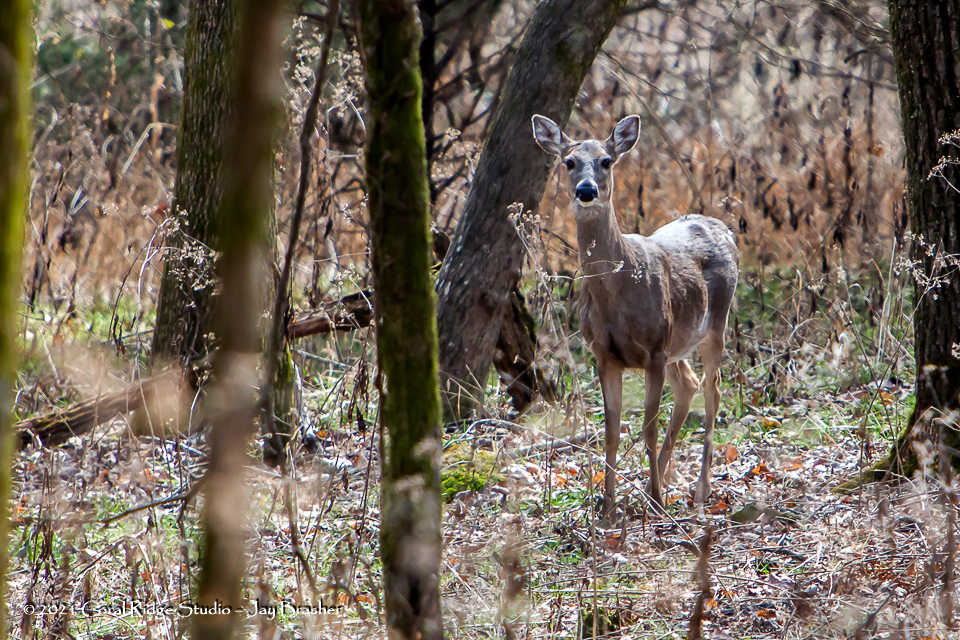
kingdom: Animalia
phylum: Chordata
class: Mammalia
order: Artiodactyla
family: Cervidae
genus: Odocoileus
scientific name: Odocoileus virginianus
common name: White-tailed deer
